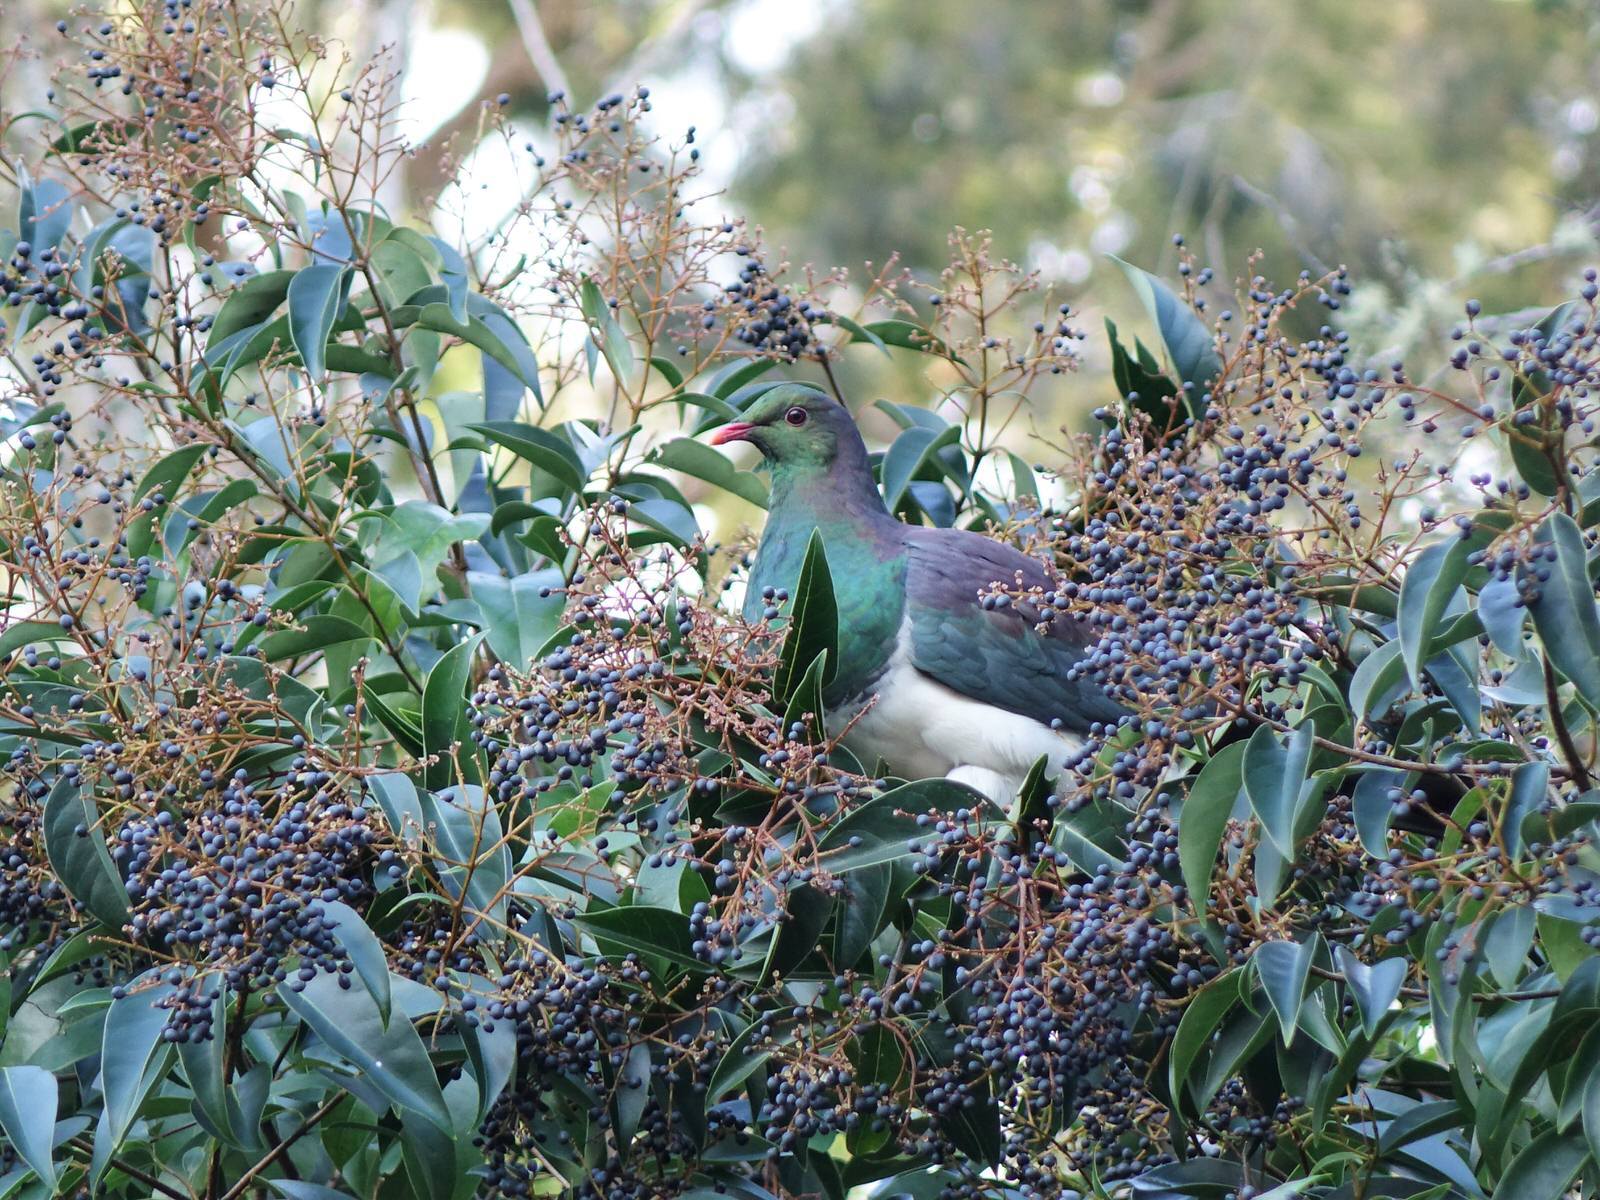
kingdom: Animalia
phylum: Chordata
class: Aves
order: Columbiformes
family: Columbidae
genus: Hemiphaga
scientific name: Hemiphaga novaeseelandiae
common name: New zealand pigeon
